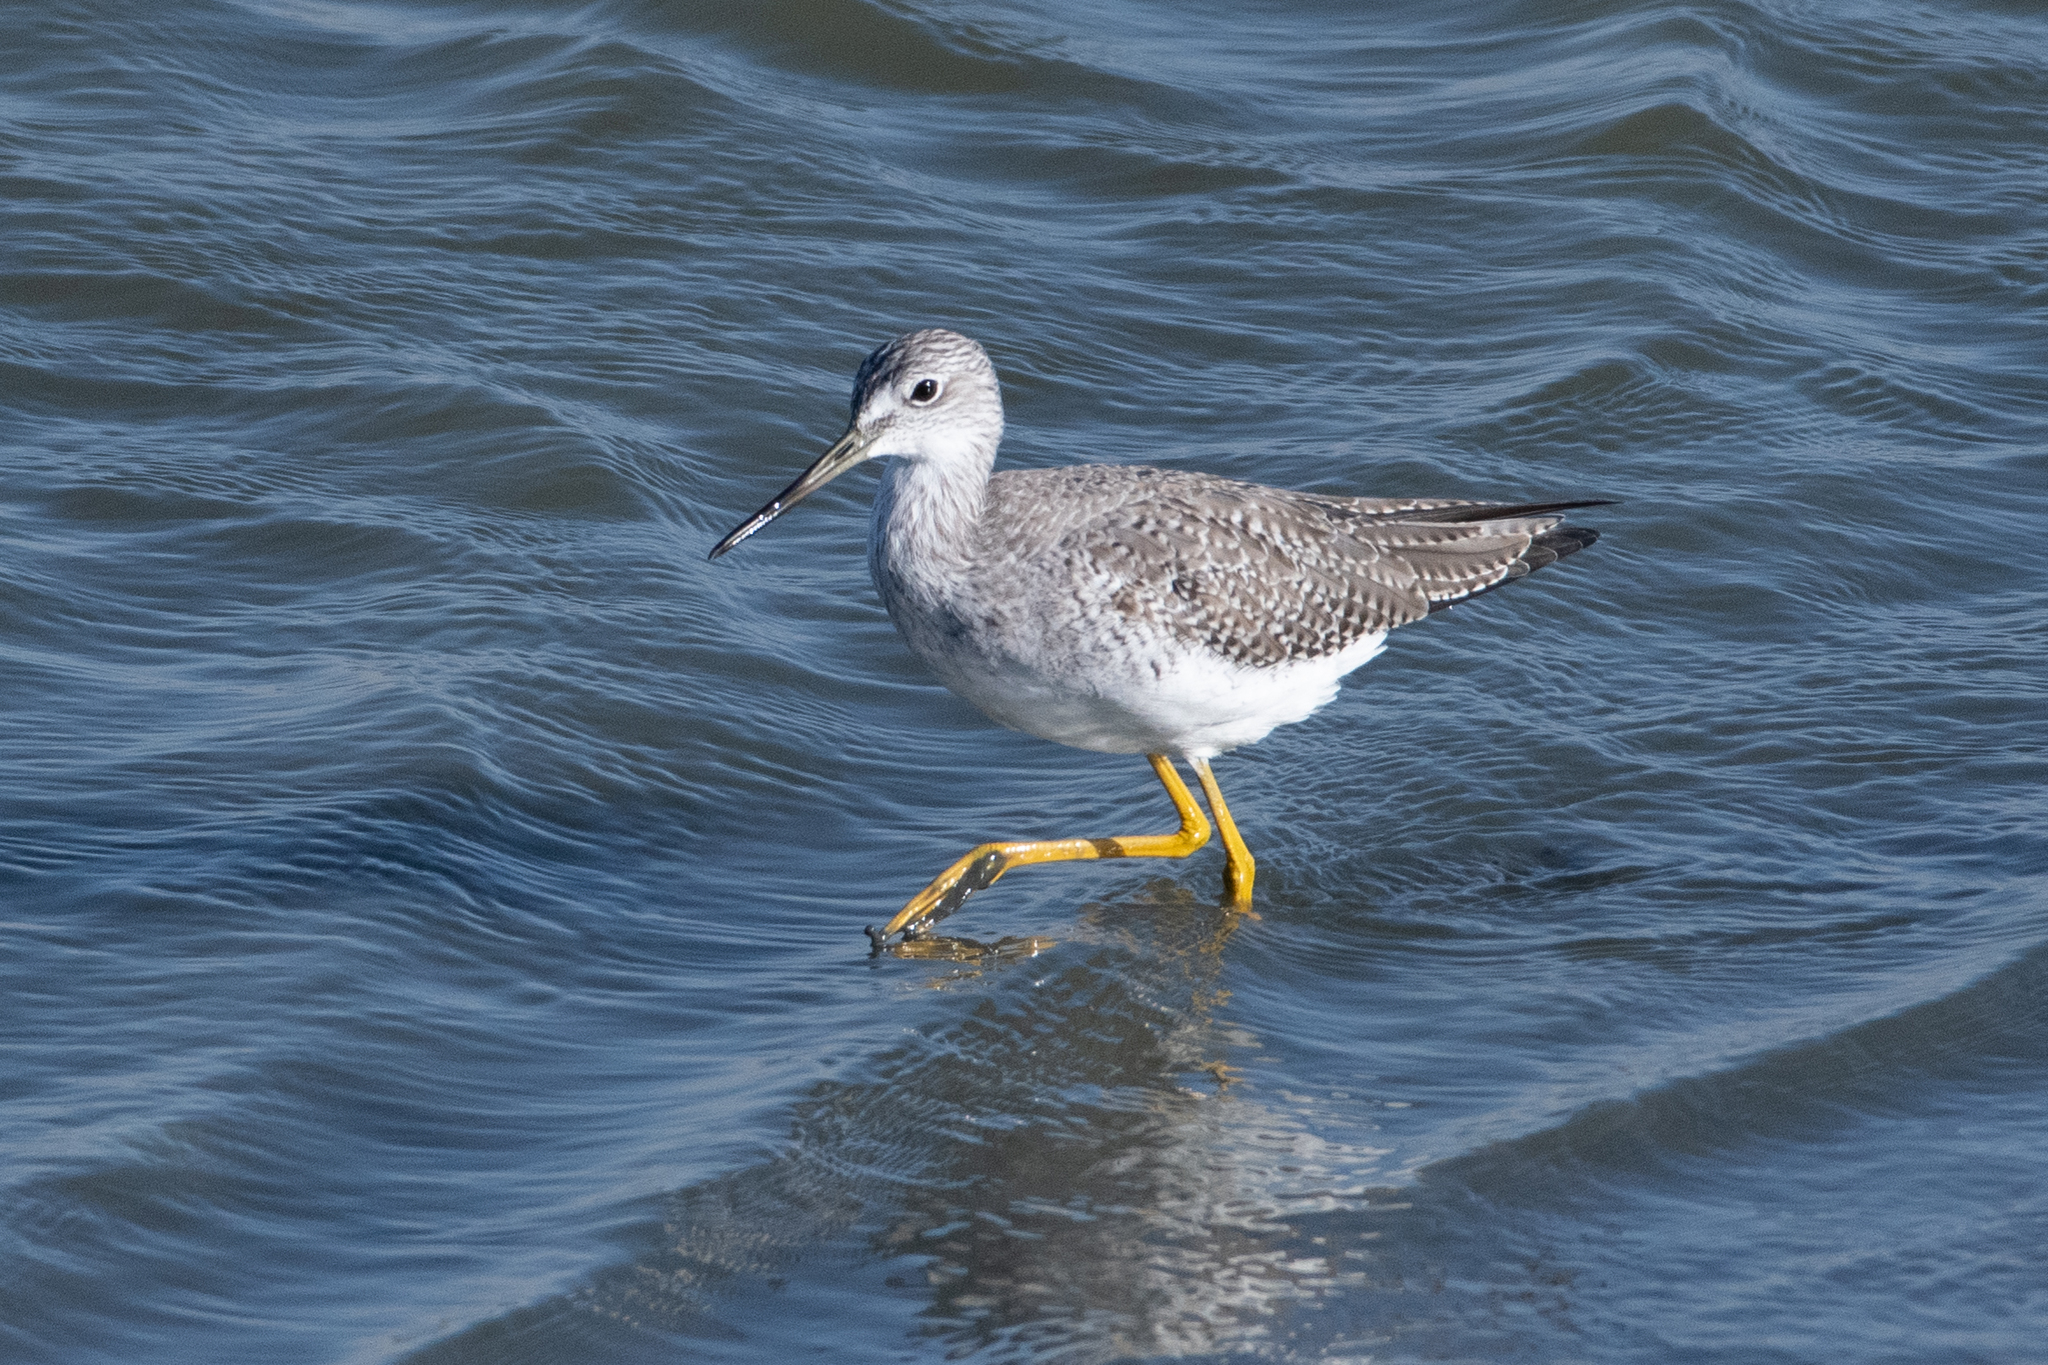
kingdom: Animalia
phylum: Chordata
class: Aves
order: Charadriiformes
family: Scolopacidae
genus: Tringa
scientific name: Tringa melanoleuca
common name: Greater yellowlegs
